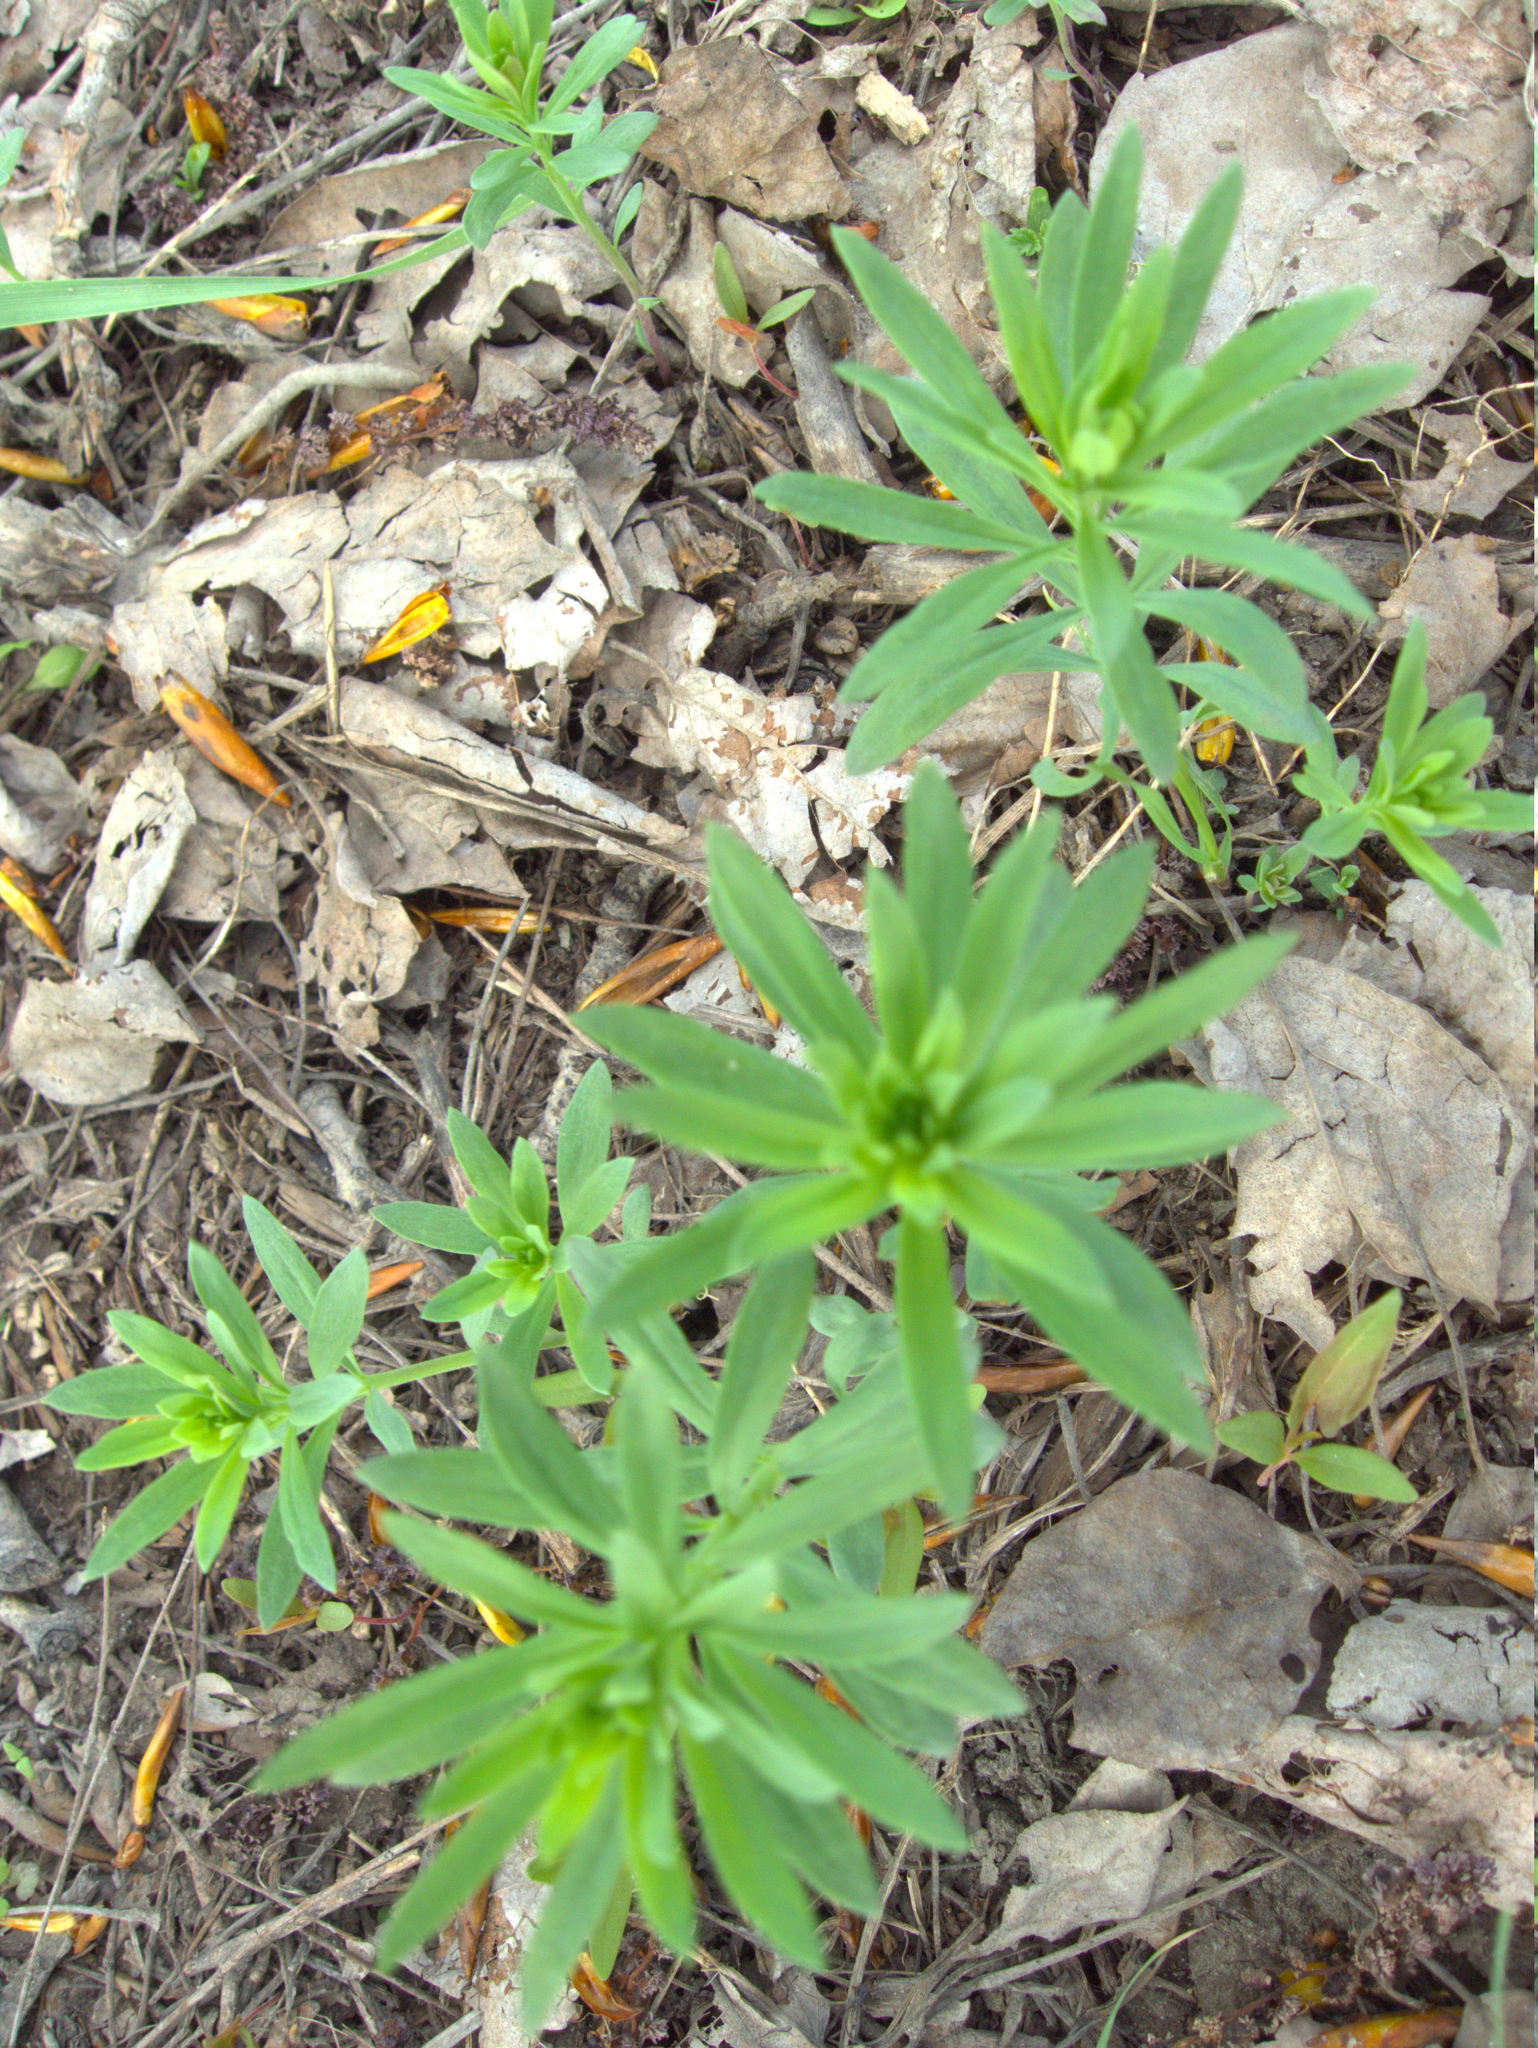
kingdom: Plantae
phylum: Tracheophyta
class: Magnoliopsida
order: Lamiales
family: Plantaginaceae
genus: Linaria
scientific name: Linaria vulgaris
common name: Butter and eggs
